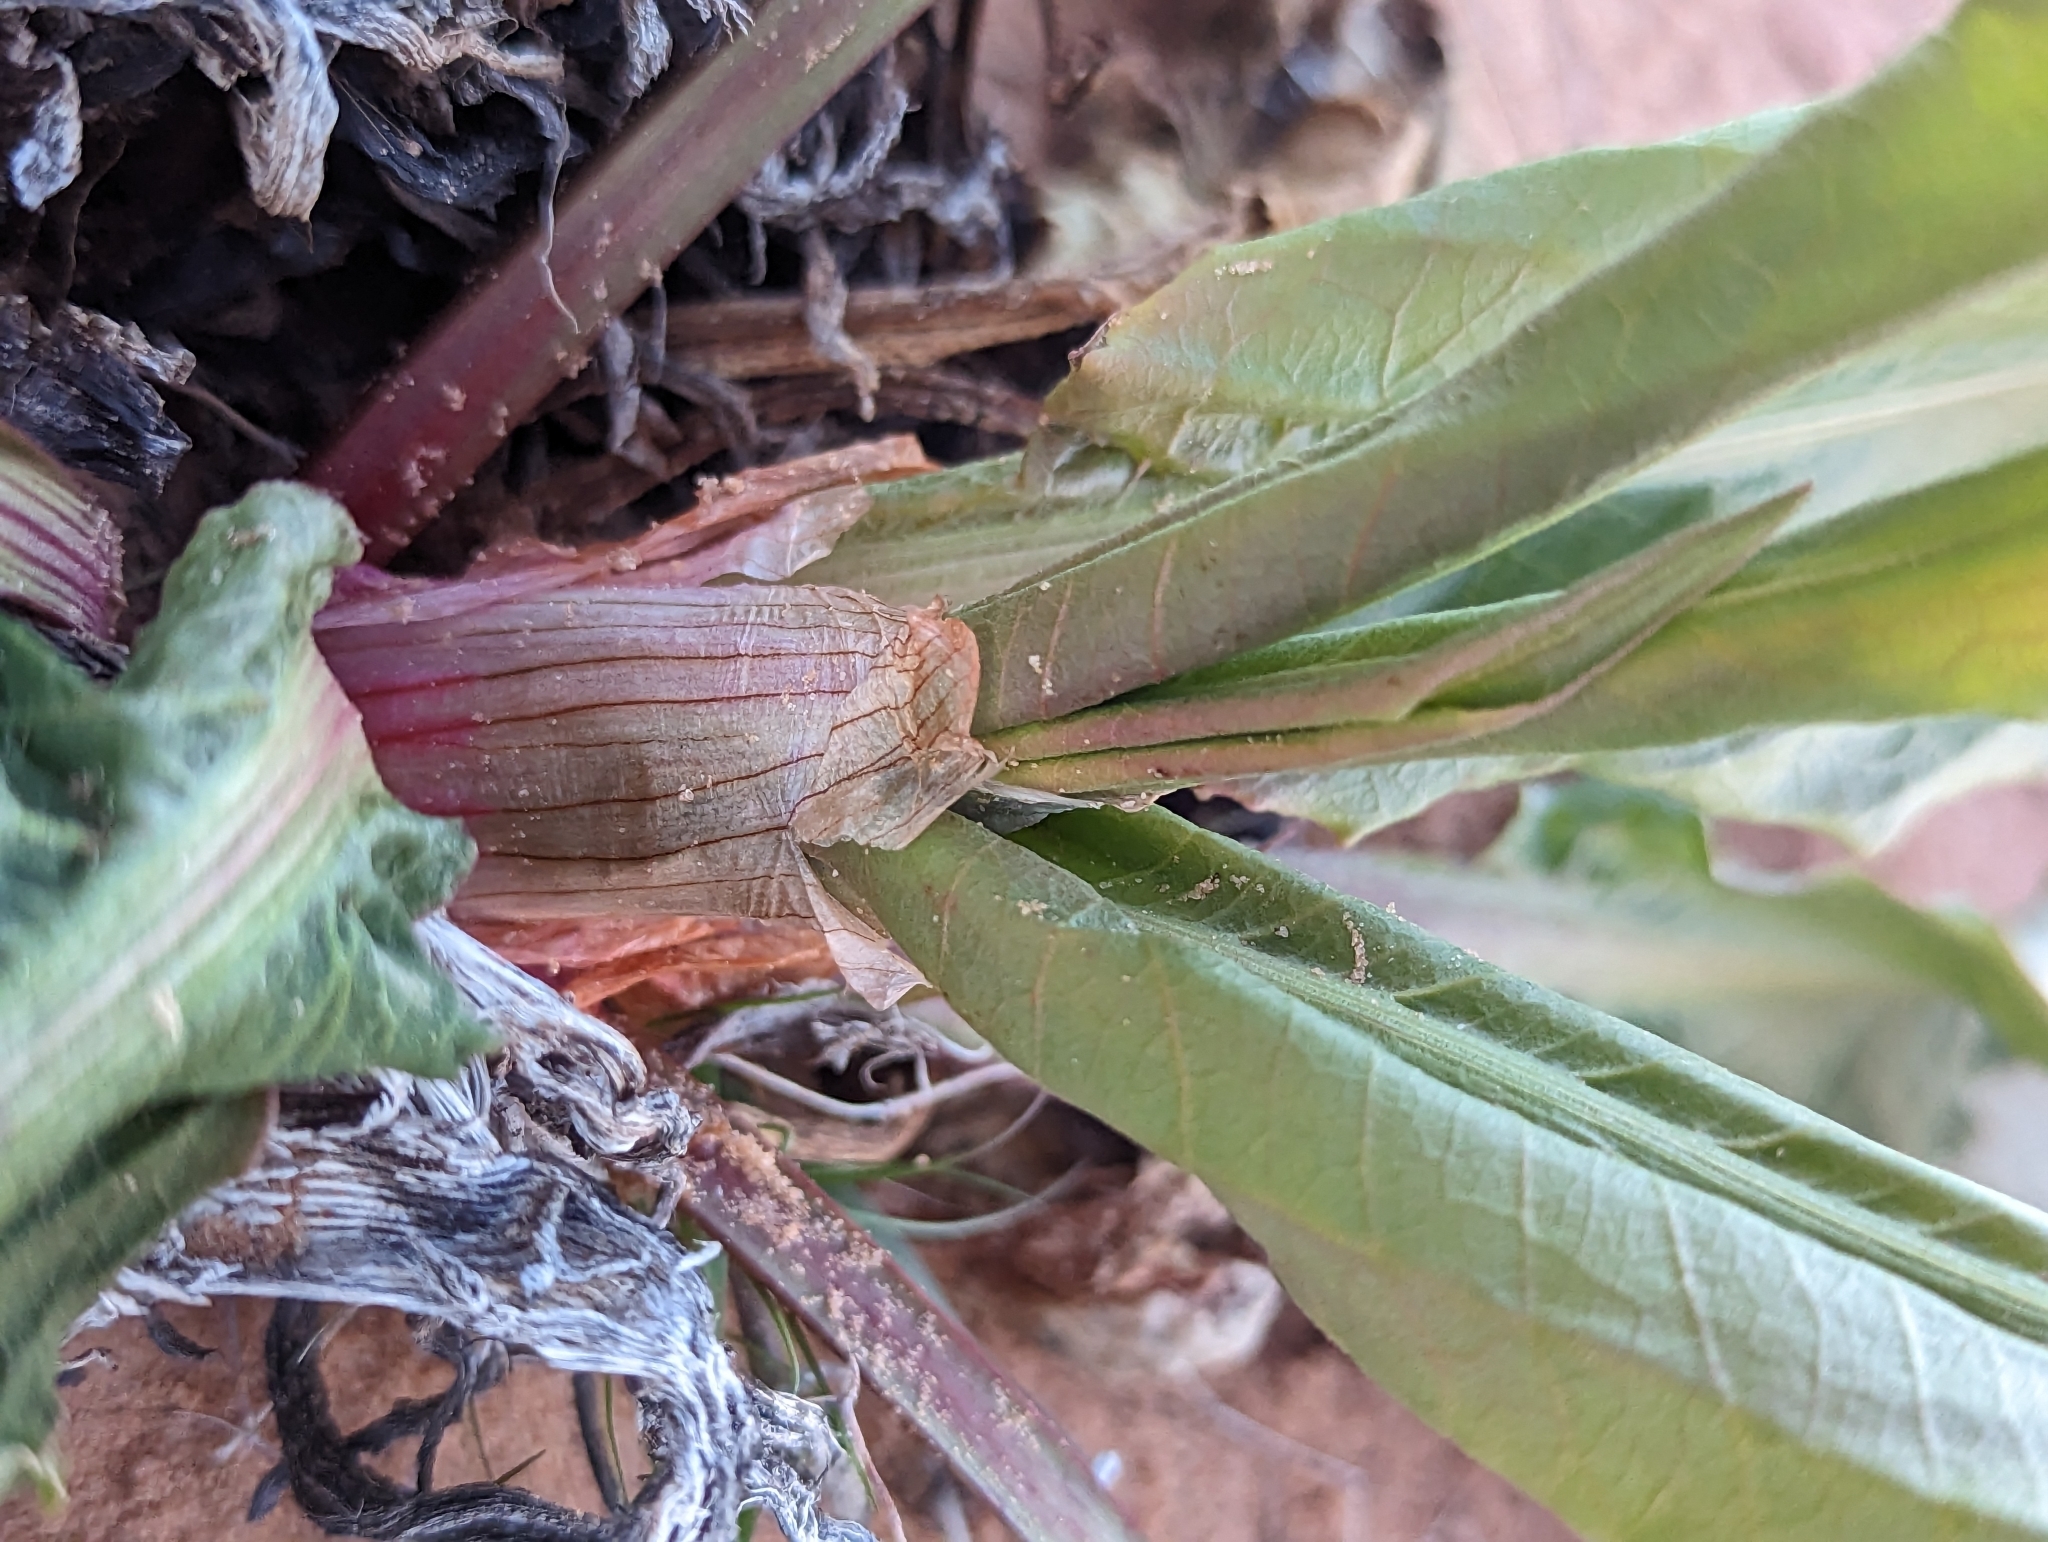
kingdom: Plantae
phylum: Tracheophyta
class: Magnoliopsida
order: Caryophyllales
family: Polygonaceae
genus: Rumex
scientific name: Rumex hymenosepalus
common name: Ganagra
